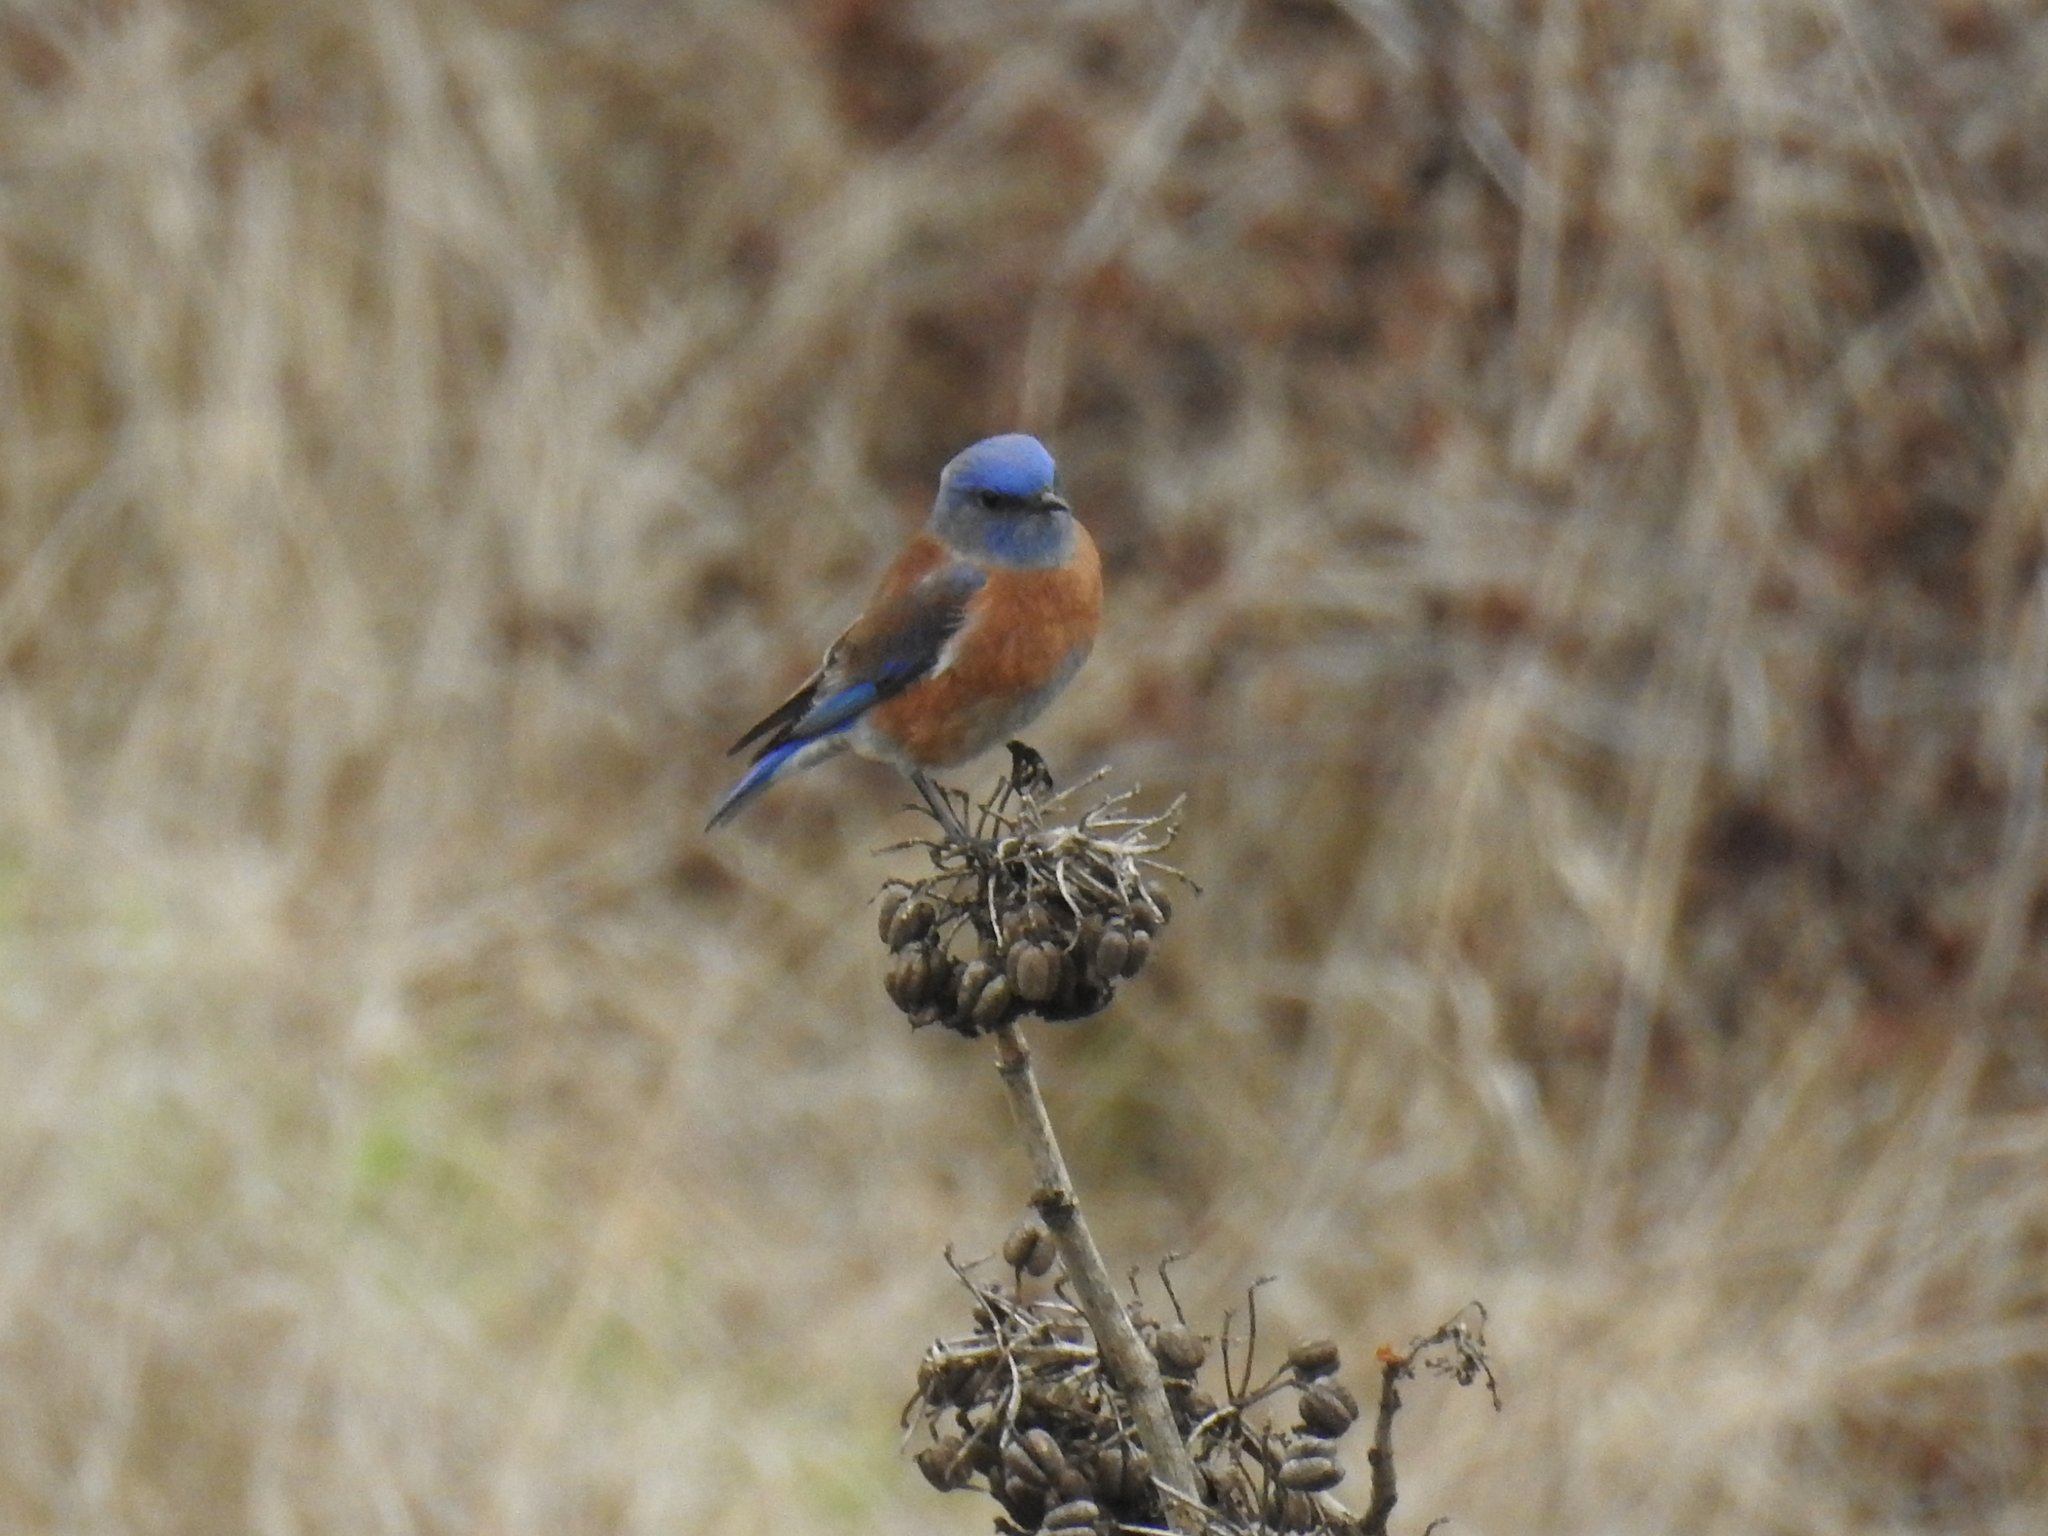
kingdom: Animalia
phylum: Chordata
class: Aves
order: Passeriformes
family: Turdidae
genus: Sialia
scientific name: Sialia mexicana
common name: Western bluebird
